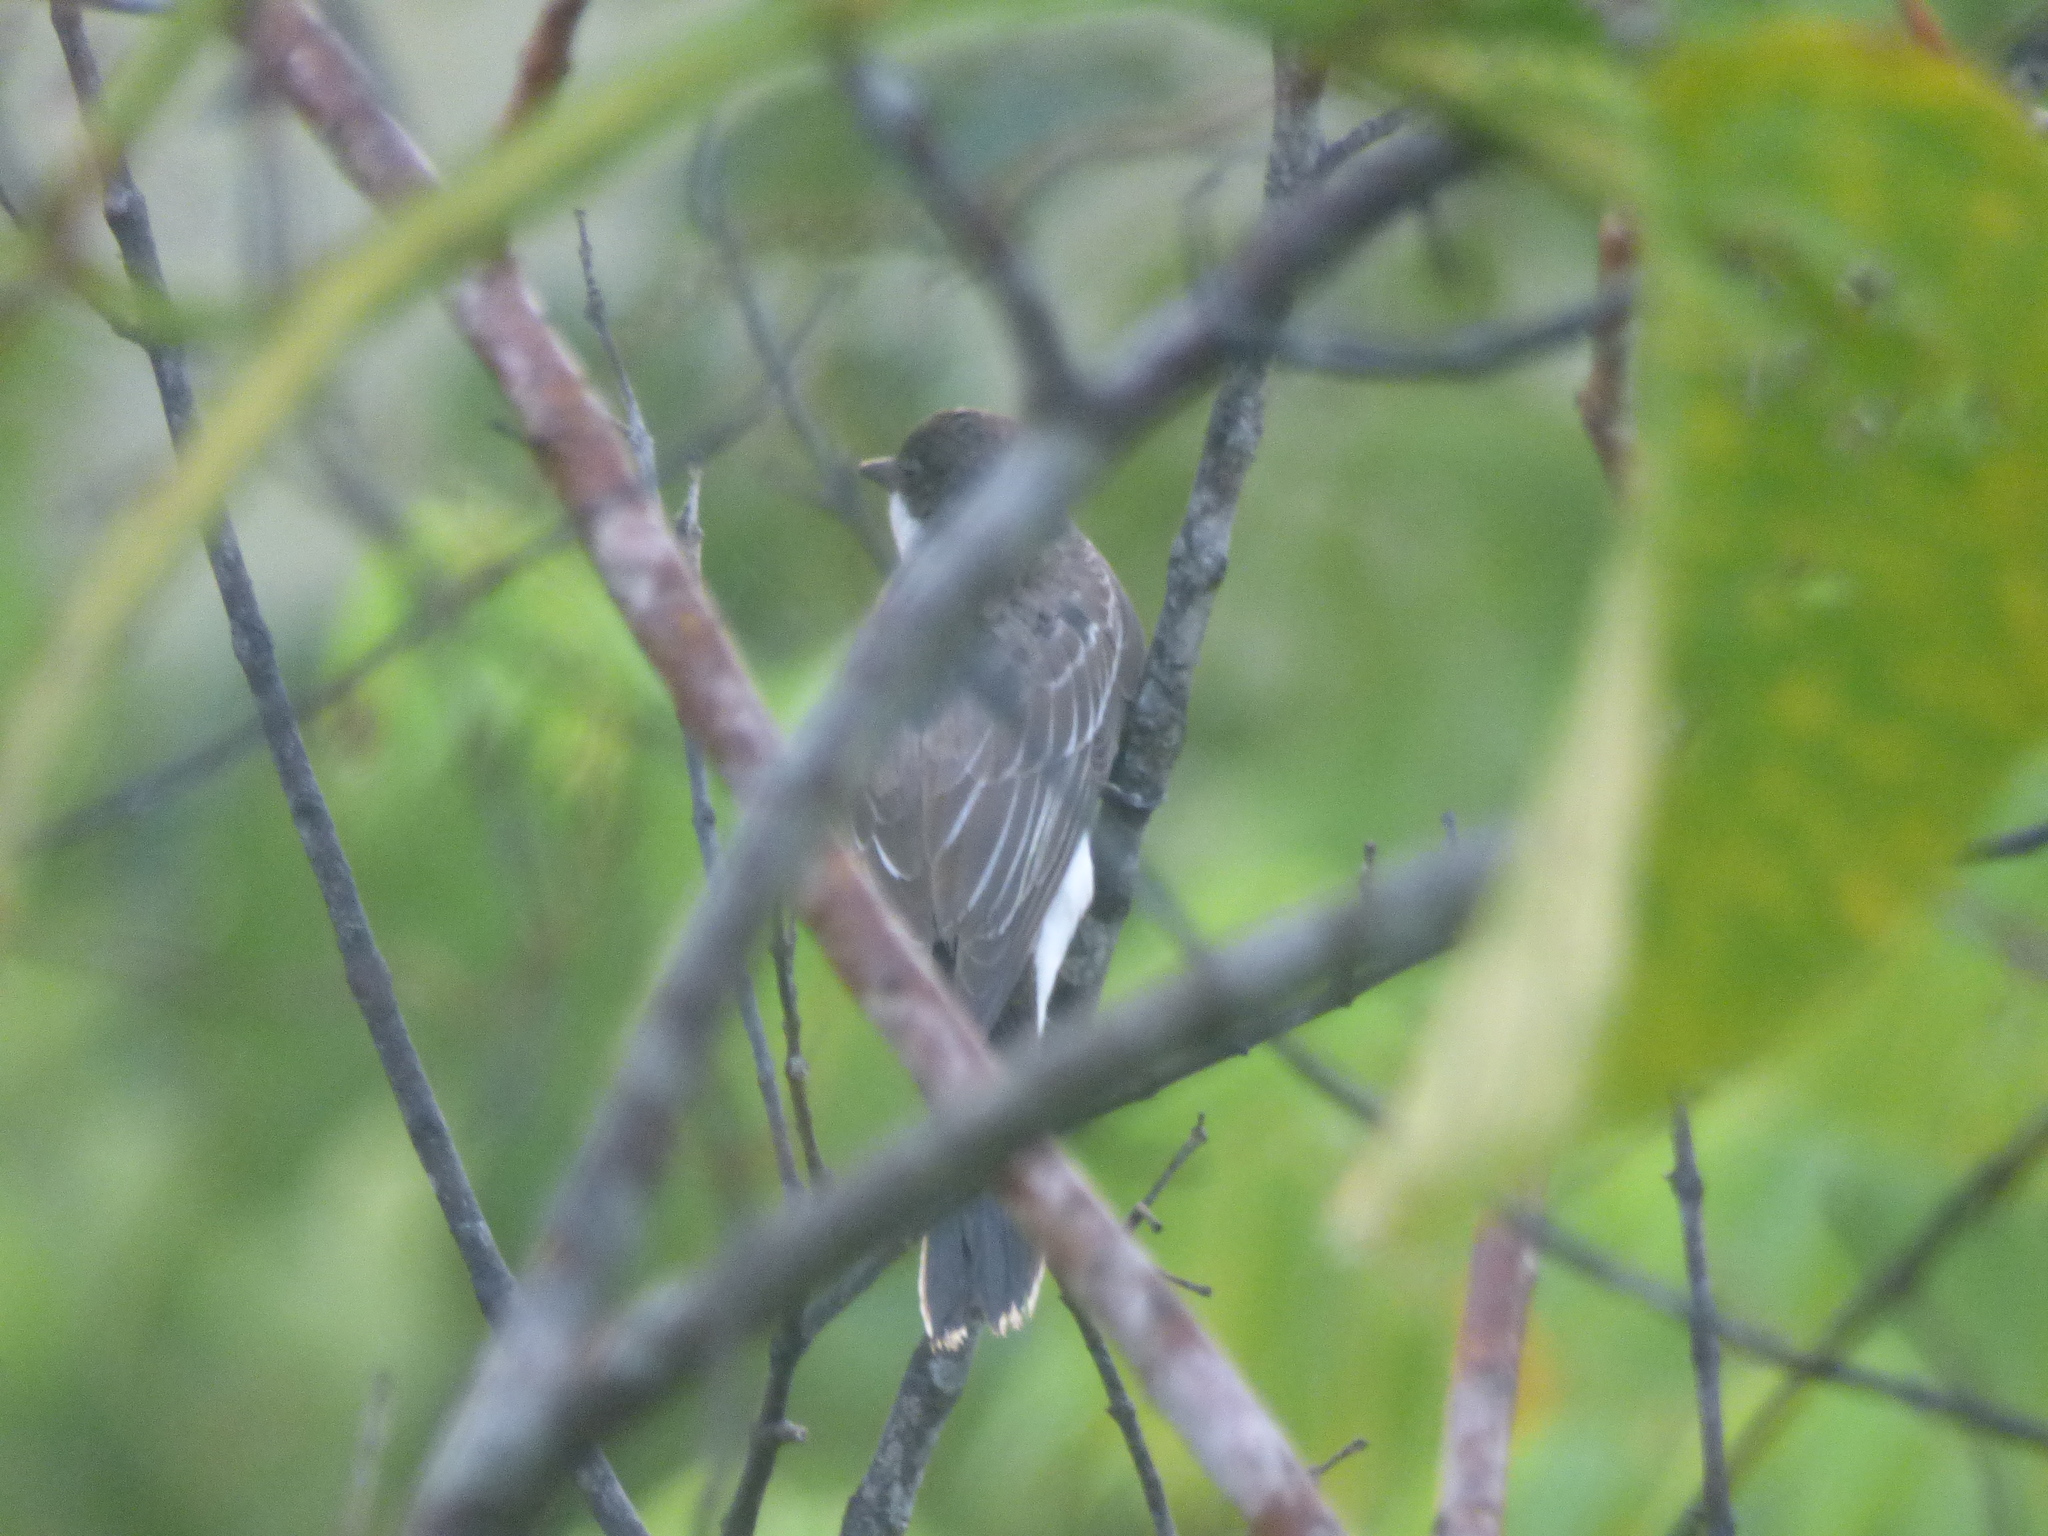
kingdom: Animalia
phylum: Chordata
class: Aves
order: Passeriformes
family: Tyrannidae
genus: Tyrannus
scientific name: Tyrannus tyrannus
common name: Eastern kingbird
